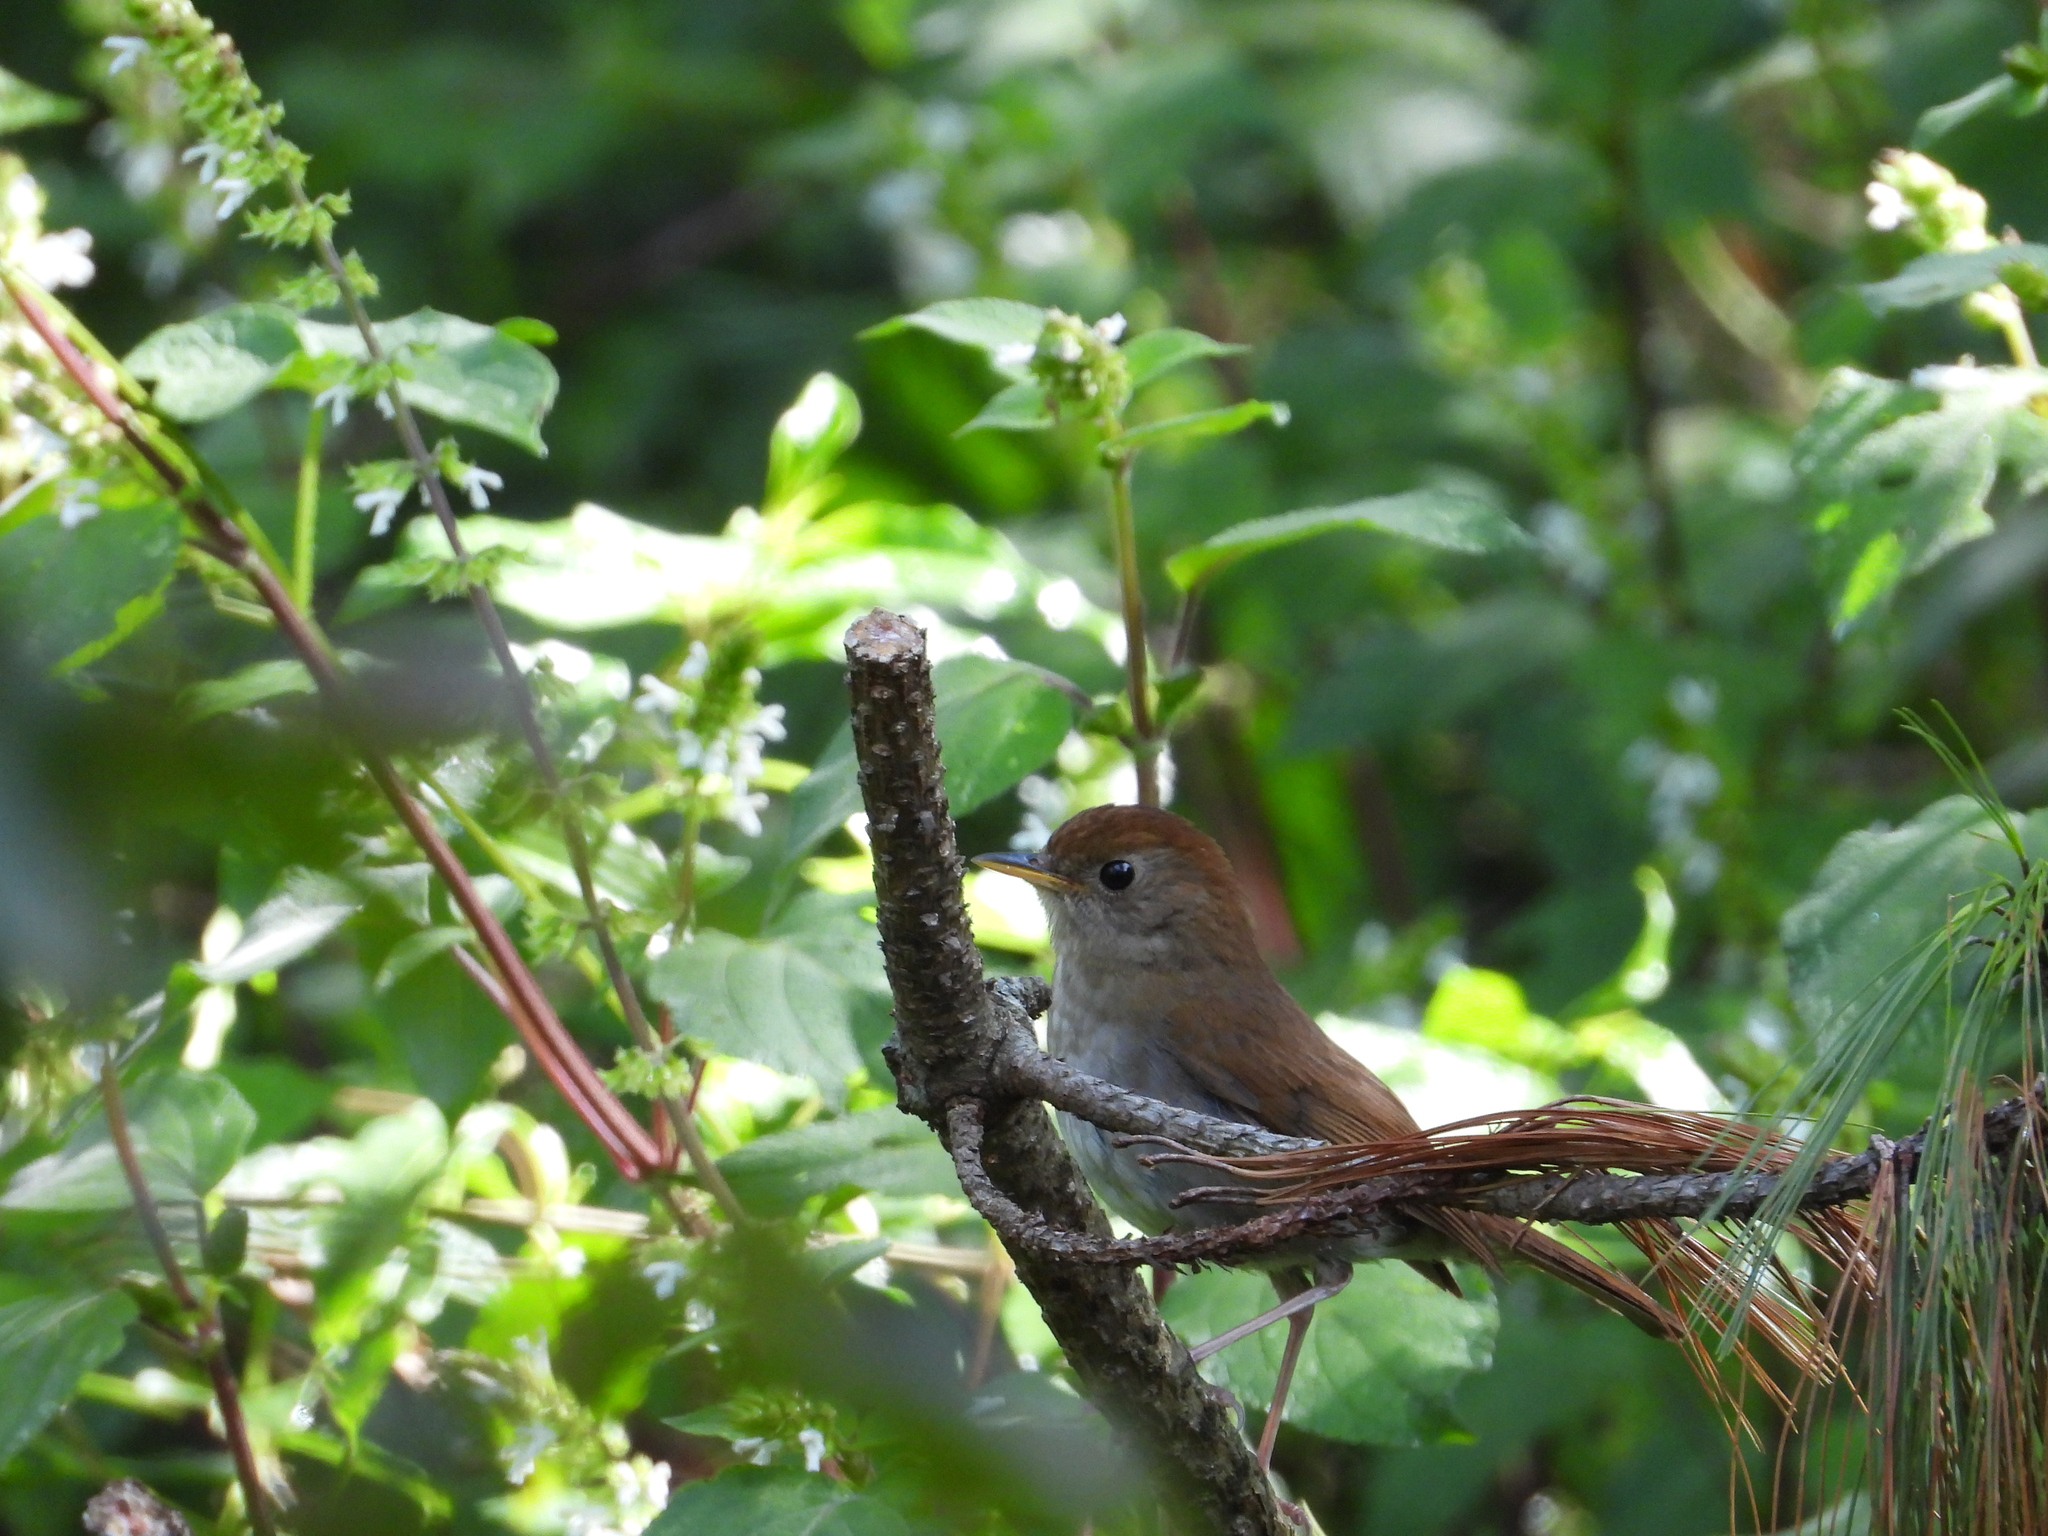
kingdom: Animalia
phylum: Chordata
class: Aves
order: Passeriformes
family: Turdidae
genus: Catharus
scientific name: Catharus frantzii
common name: Ruddy-capped nightingale-thrush
